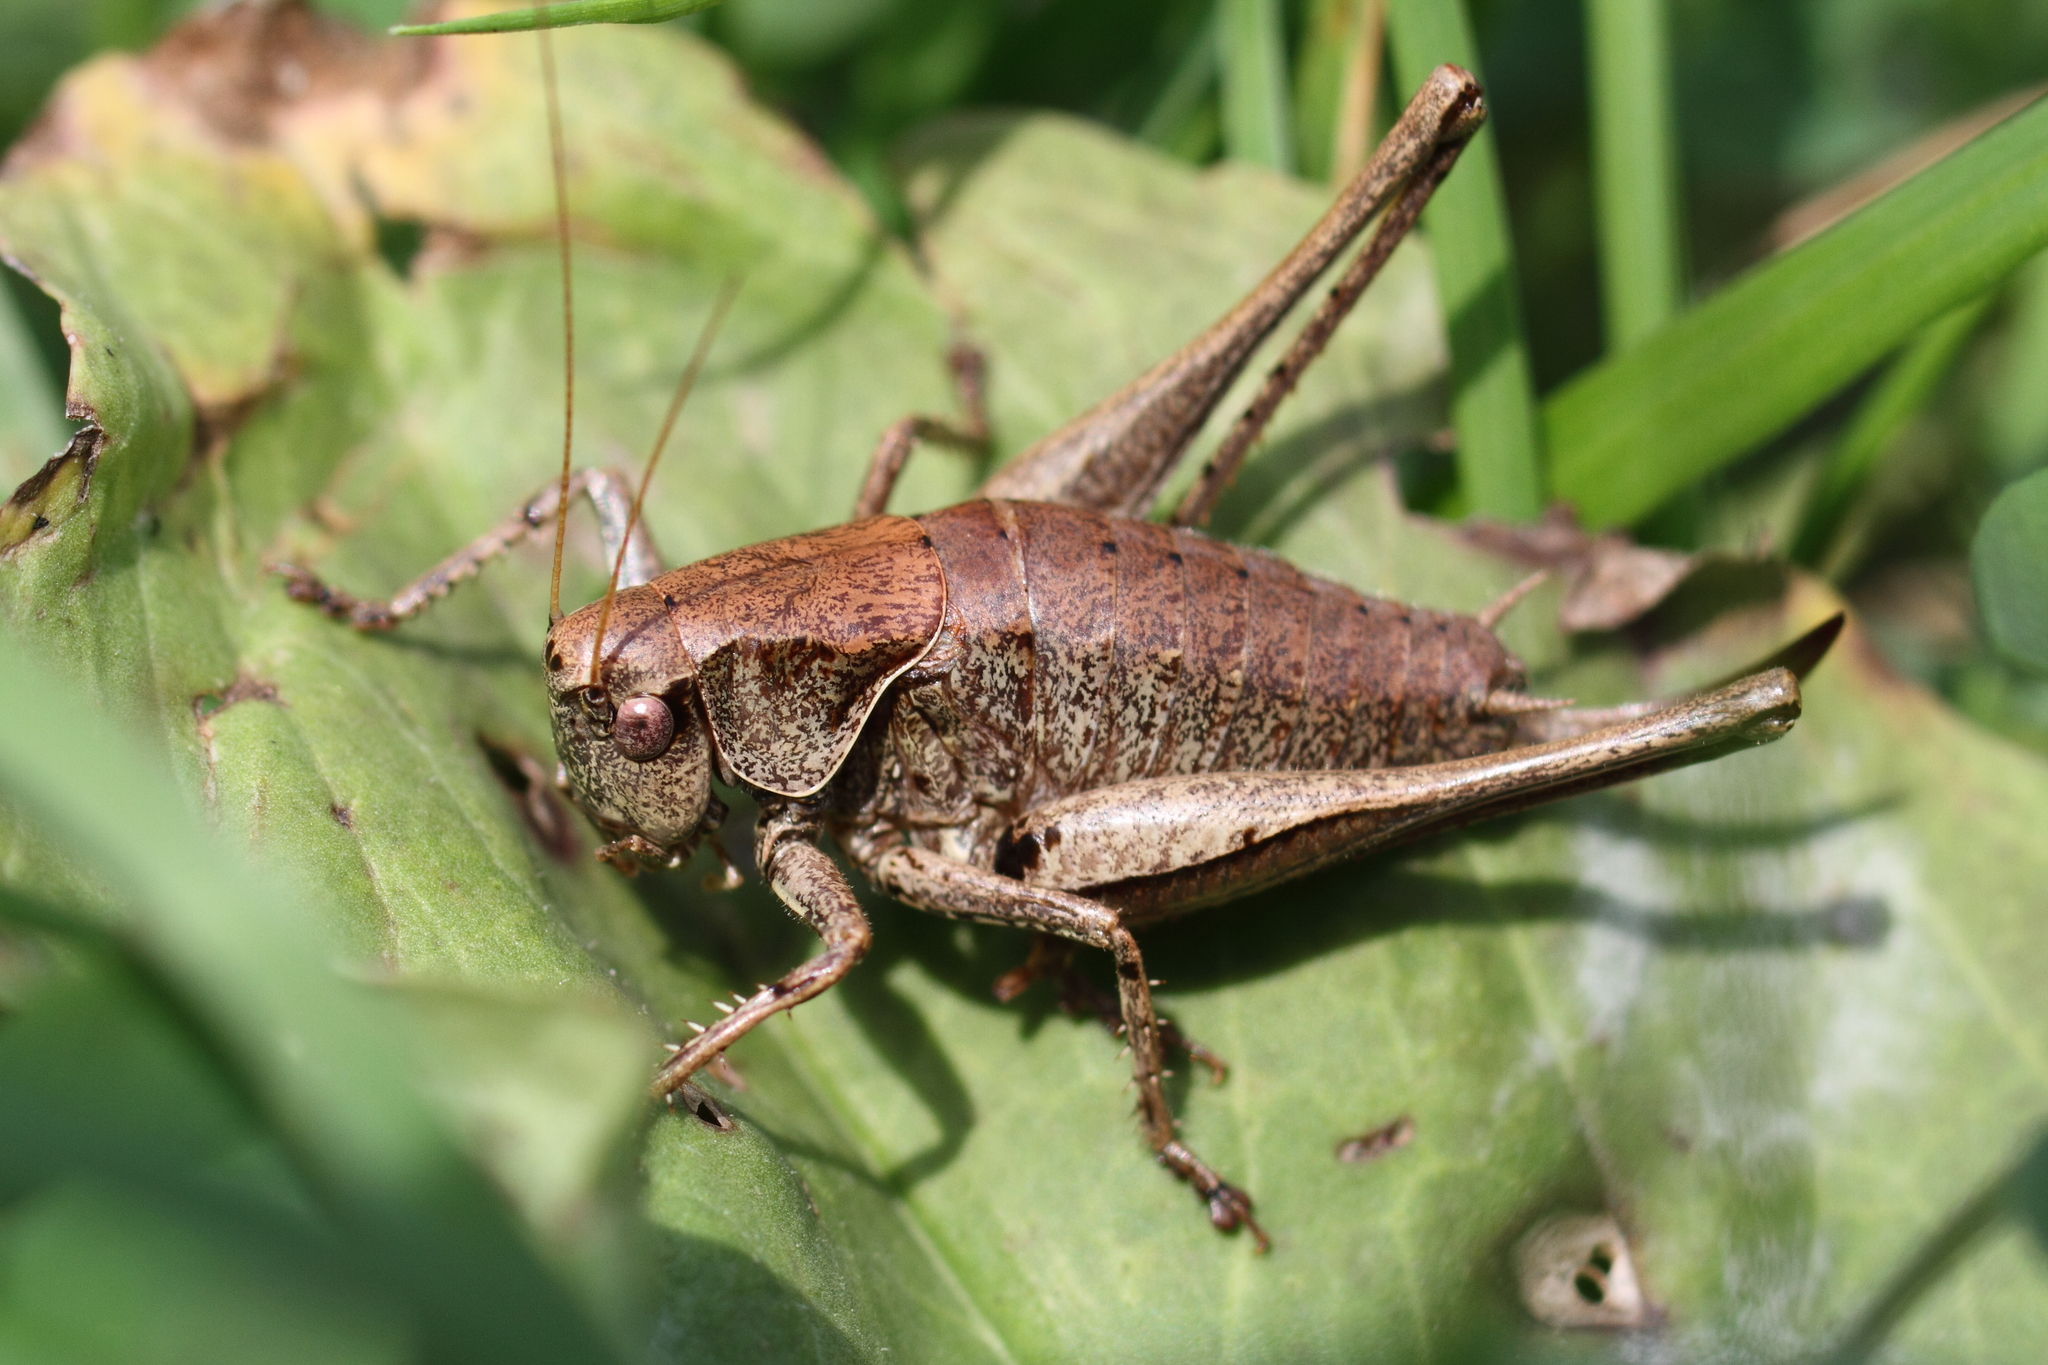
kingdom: Animalia
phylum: Arthropoda
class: Insecta
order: Orthoptera
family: Tettigoniidae
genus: Pholidoptera
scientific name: Pholidoptera griseoaptera
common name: Dark bush-cricket
